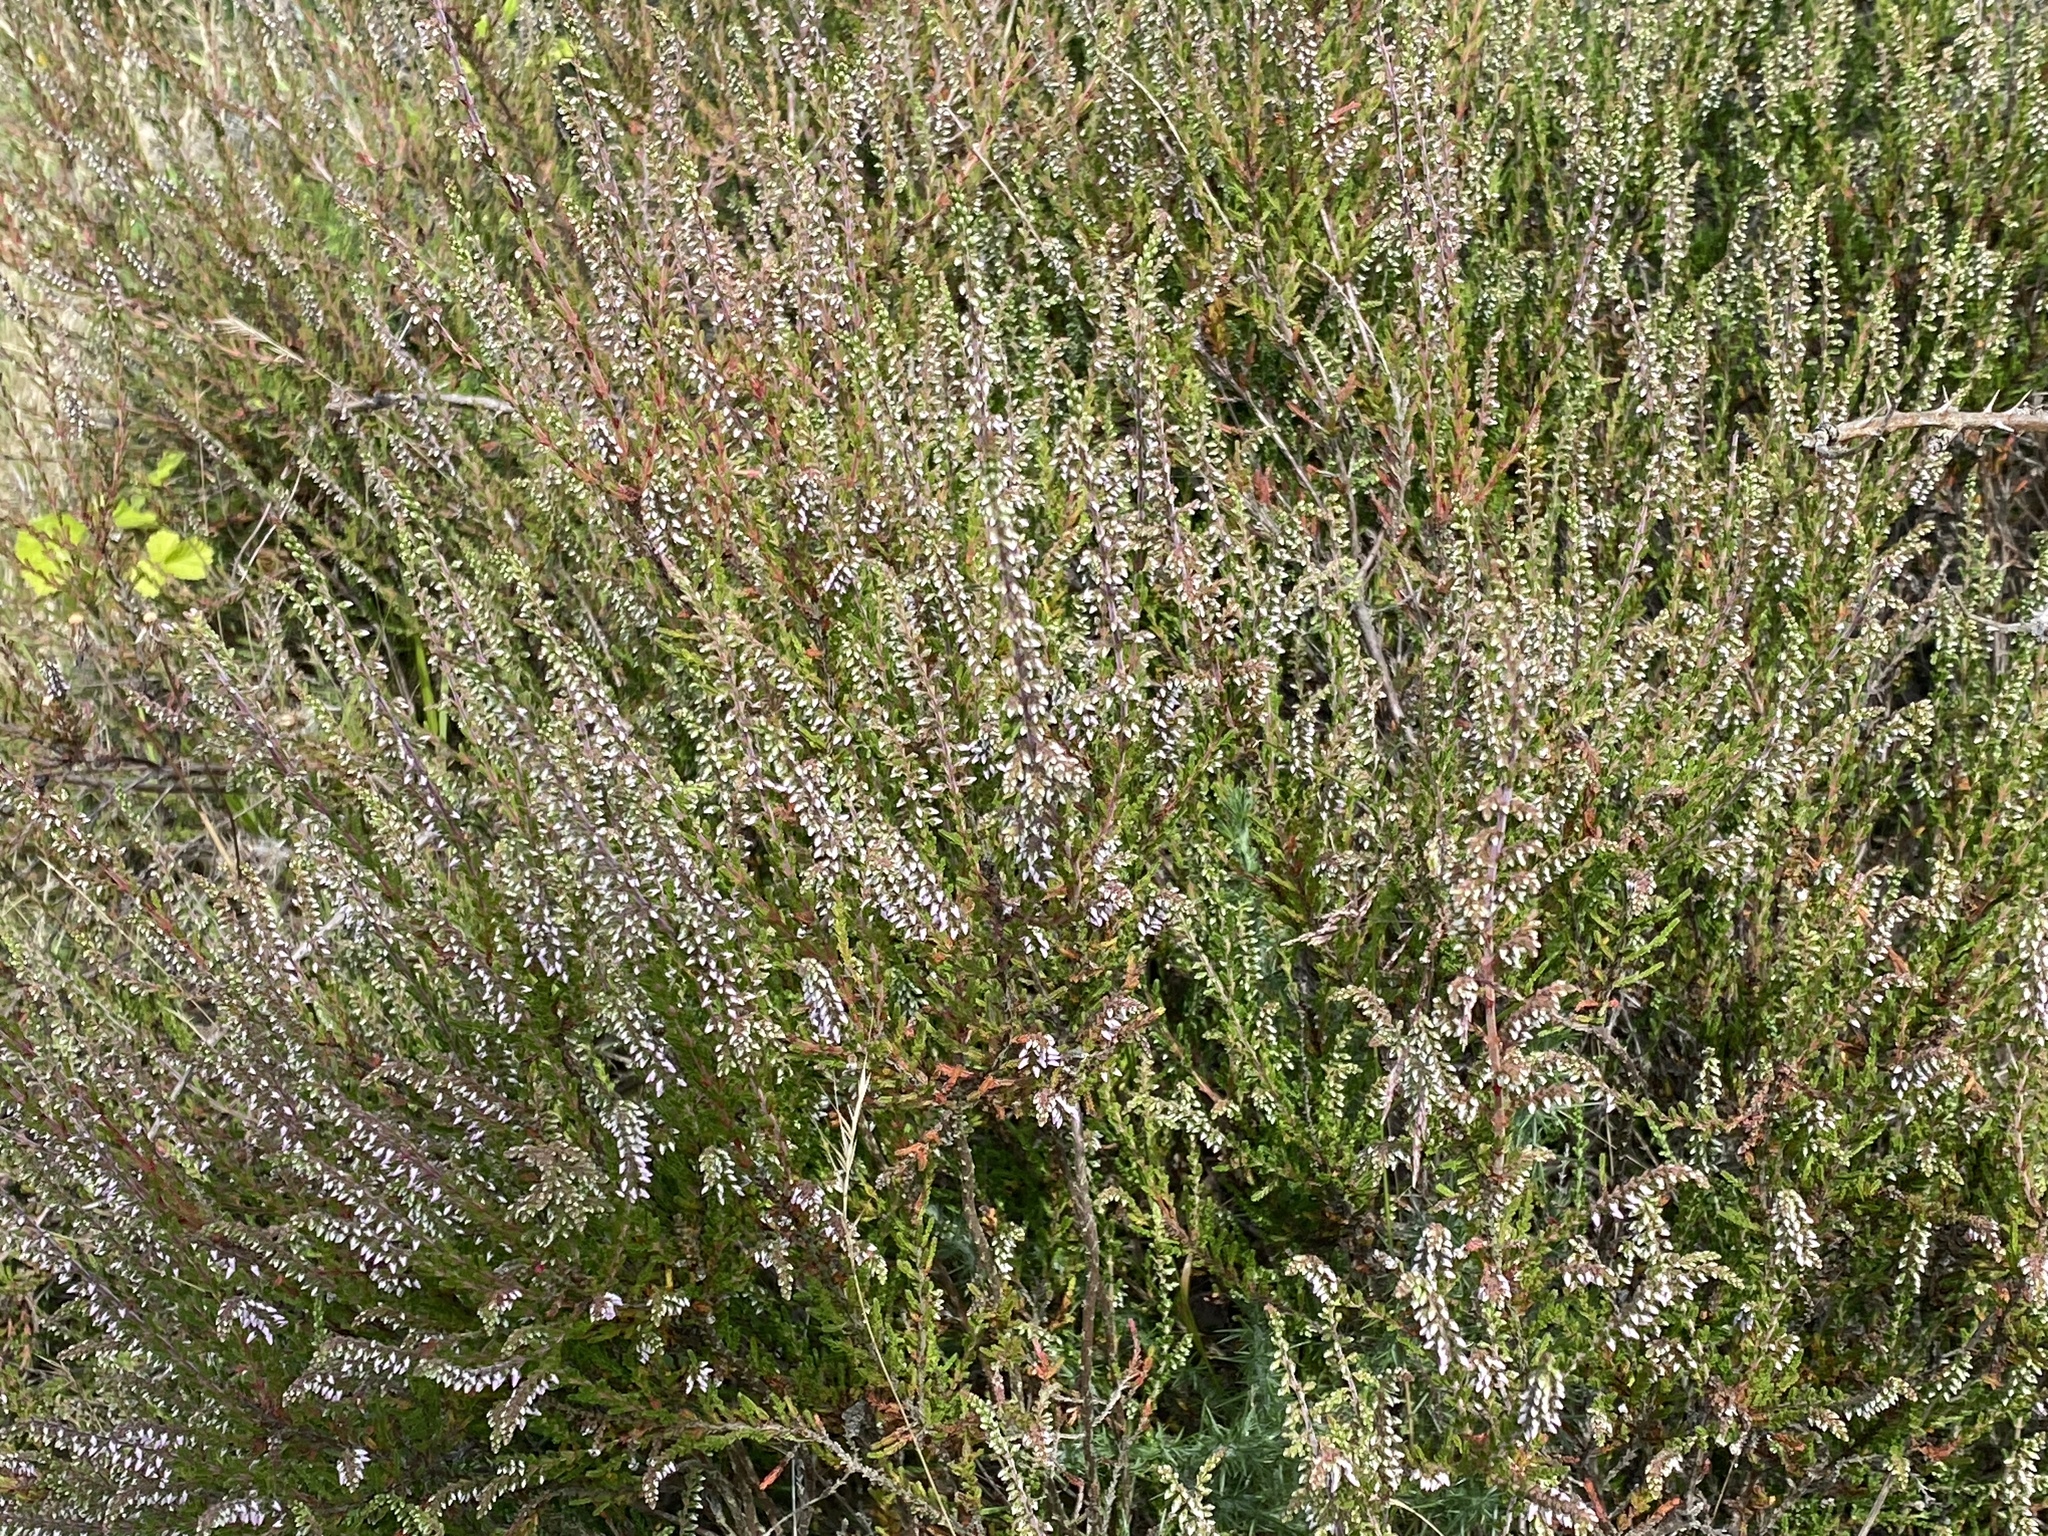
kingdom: Plantae
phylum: Tracheophyta
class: Magnoliopsida
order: Ericales
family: Ericaceae
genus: Calluna
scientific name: Calluna vulgaris
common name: Heather
